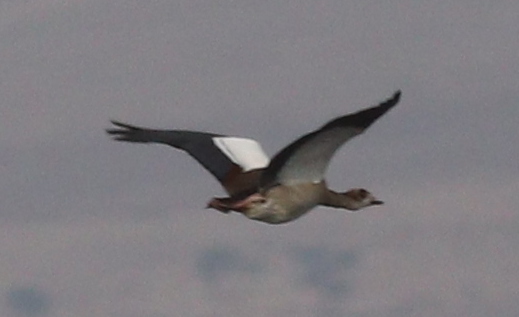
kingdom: Animalia
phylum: Chordata
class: Aves
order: Anseriformes
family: Anatidae
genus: Alopochen
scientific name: Alopochen aegyptiaca
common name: Egyptian goose
